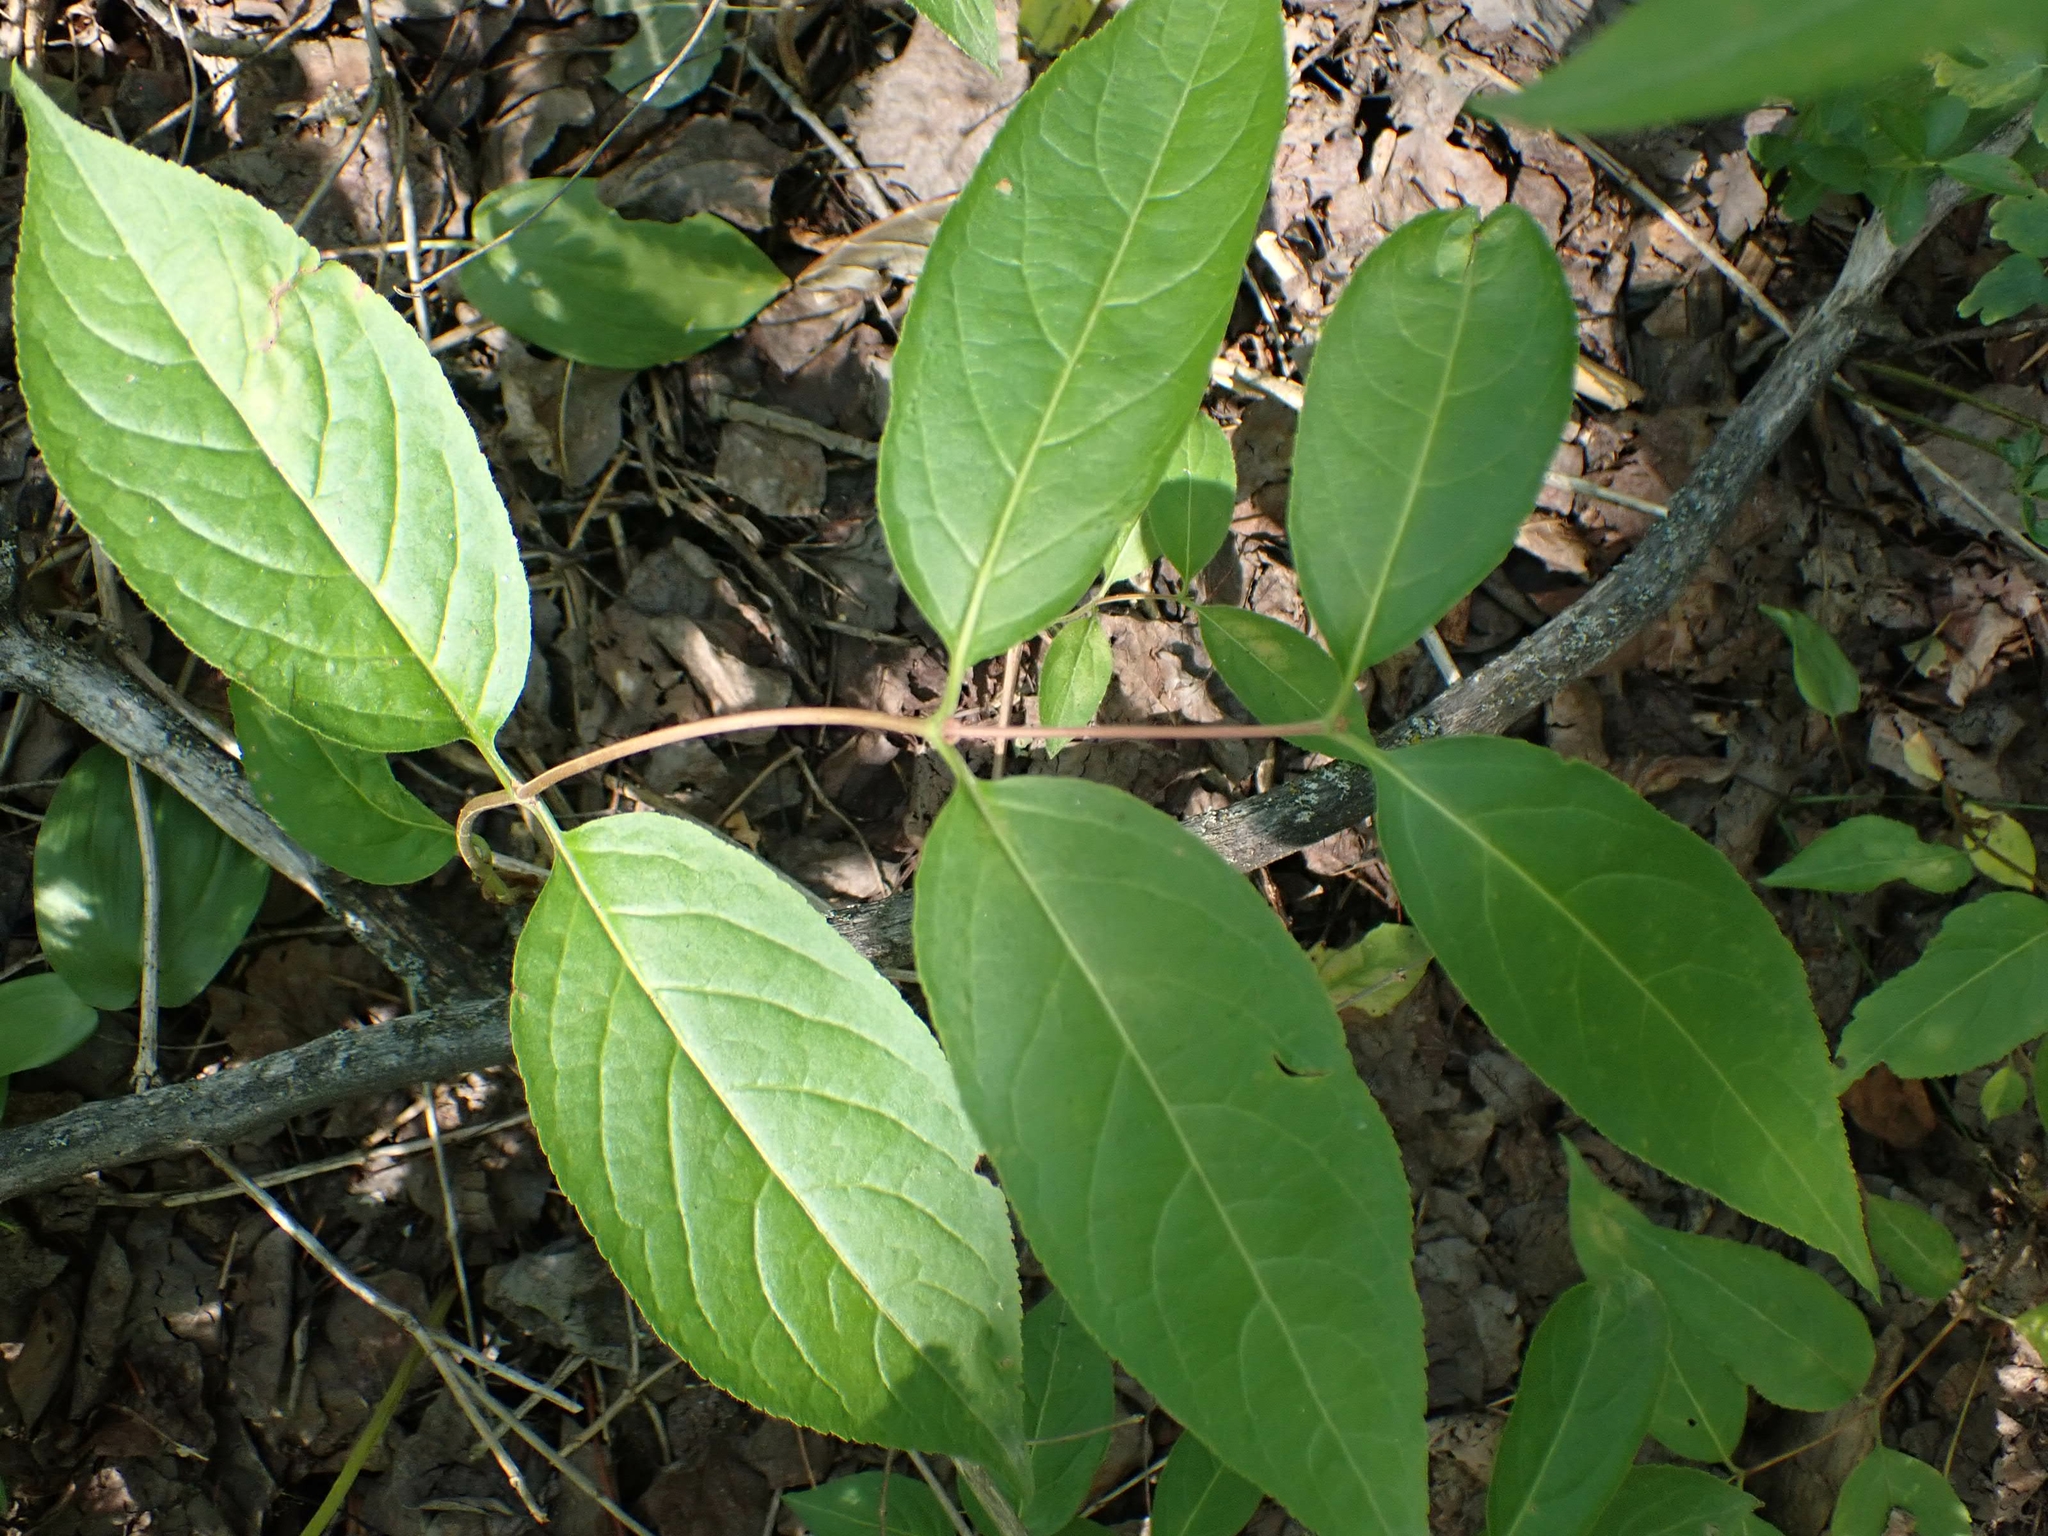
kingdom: Plantae
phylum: Tracheophyta
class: Magnoliopsida
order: Dipsacales
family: Caprifoliaceae
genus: Diervilla
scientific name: Diervilla lonicera
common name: Bush-honeysuckle
